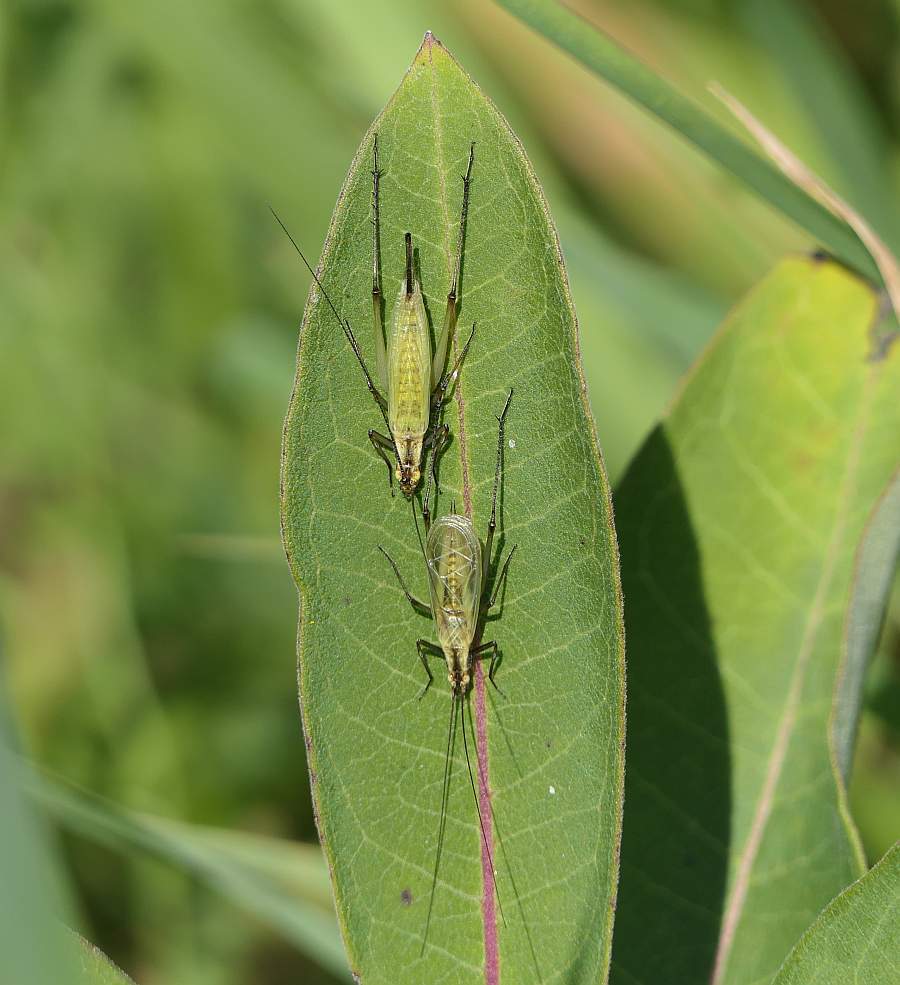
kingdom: Animalia
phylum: Arthropoda
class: Insecta
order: Orthoptera
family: Gryllidae
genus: Oecanthus
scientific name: Oecanthus nigricornis
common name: Black-horned tree cricket
